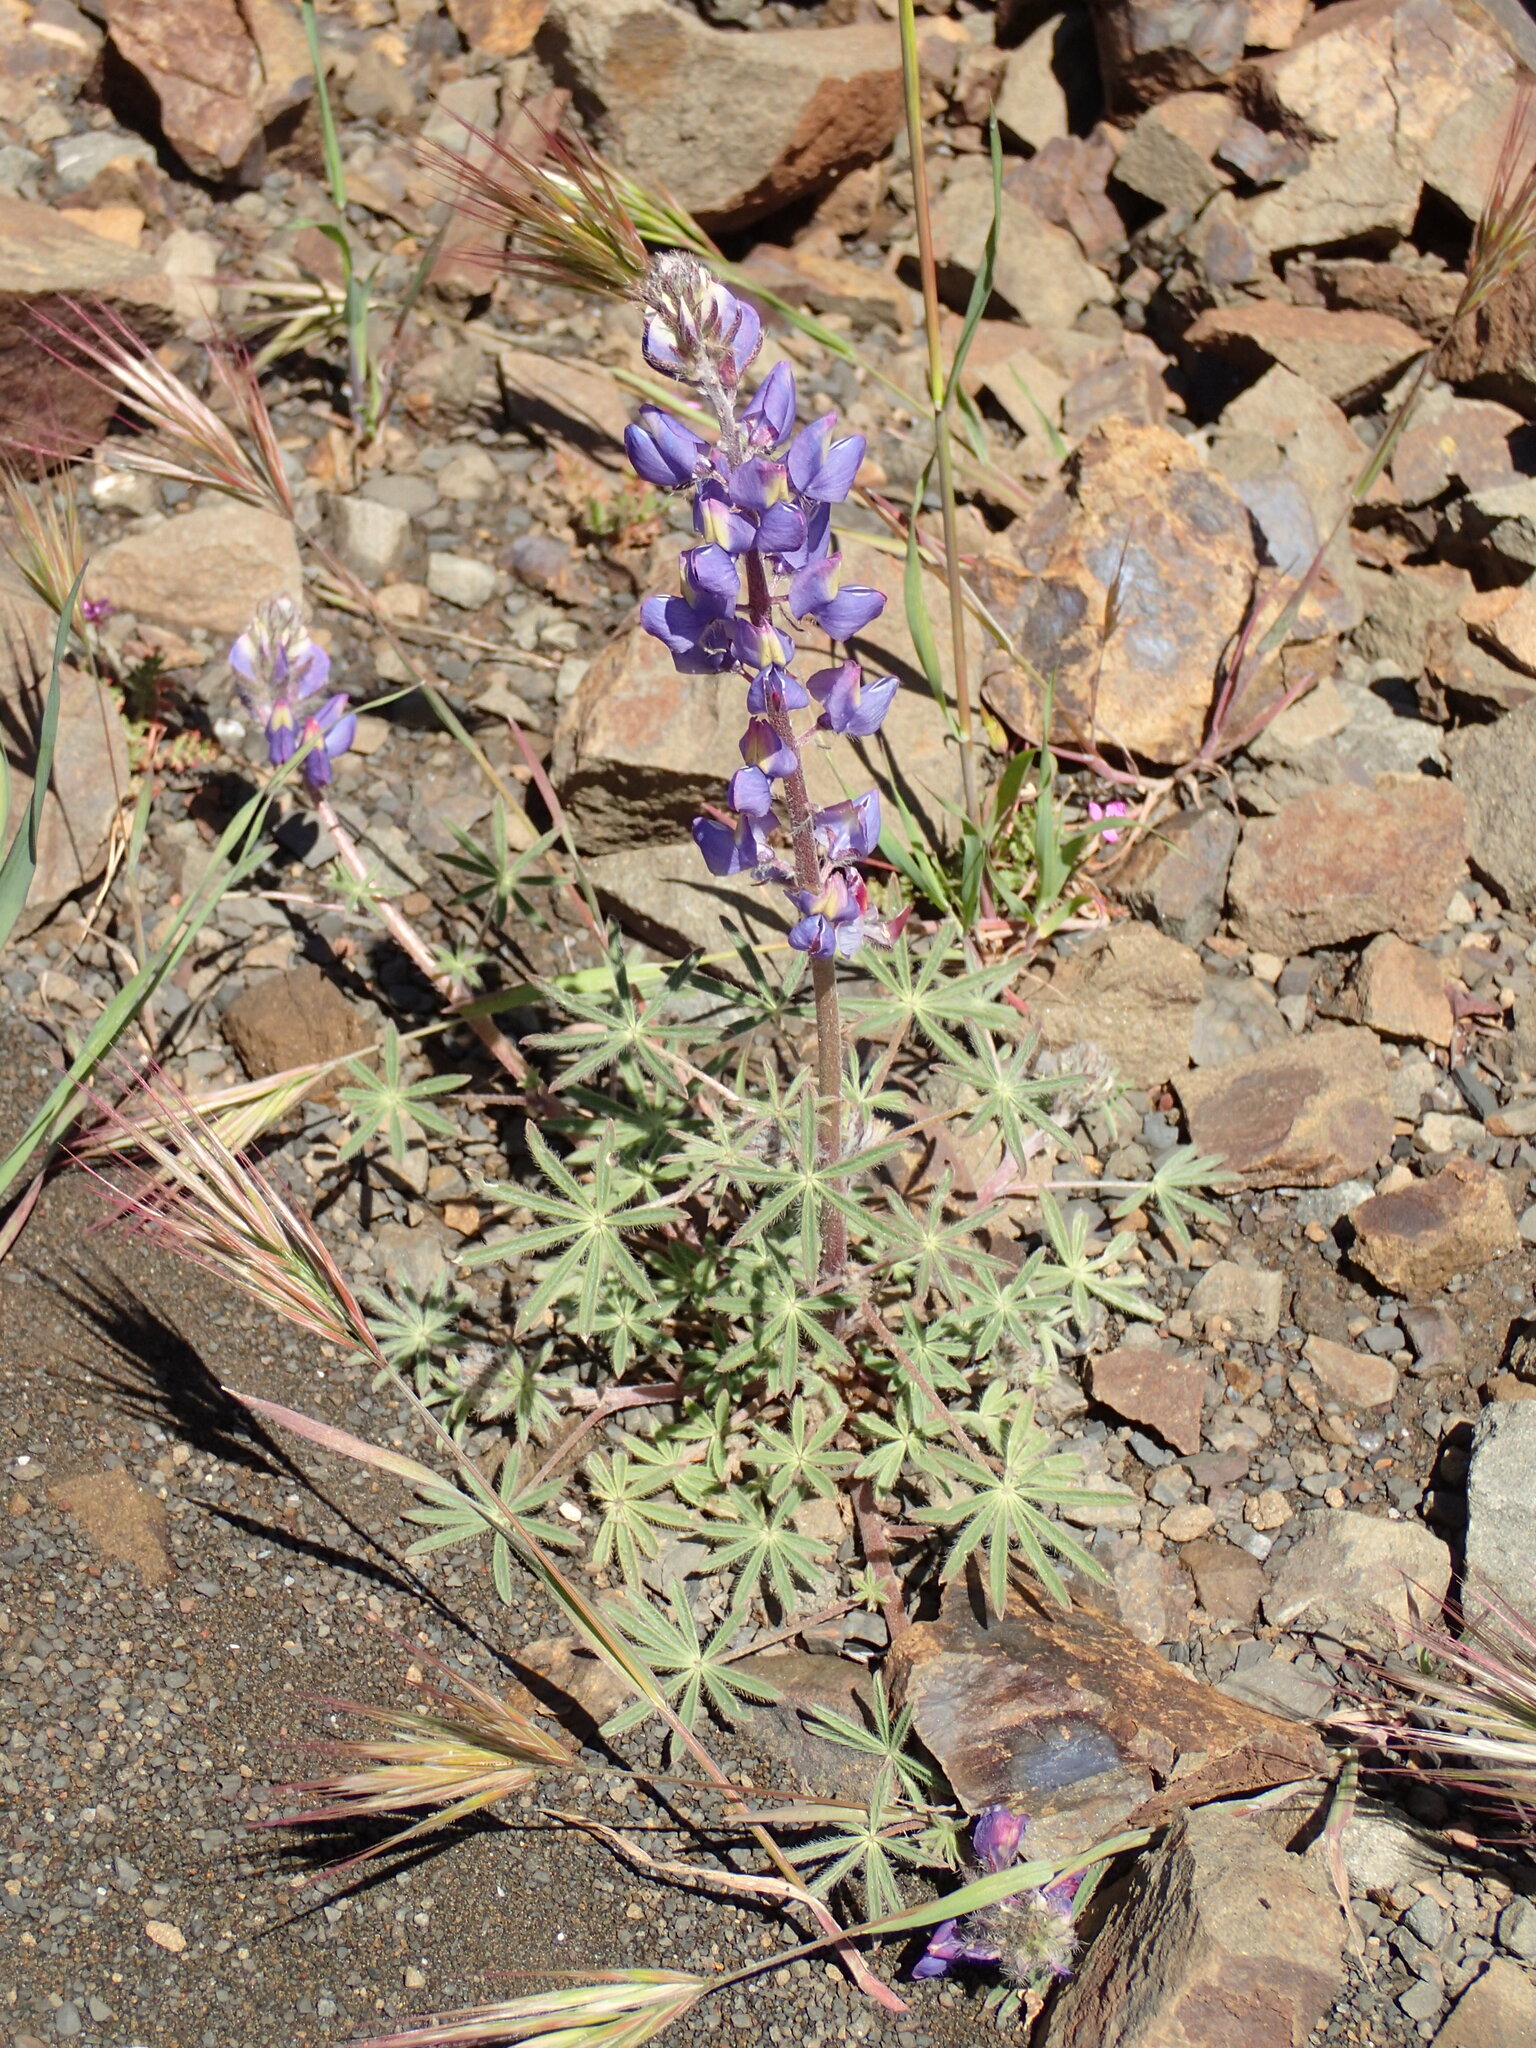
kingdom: Plantae
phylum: Tracheophyta
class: Magnoliopsida
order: Fabales
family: Fabaceae
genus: Lupinus
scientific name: Lupinus sparsiflorus
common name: Coulter's lupine
